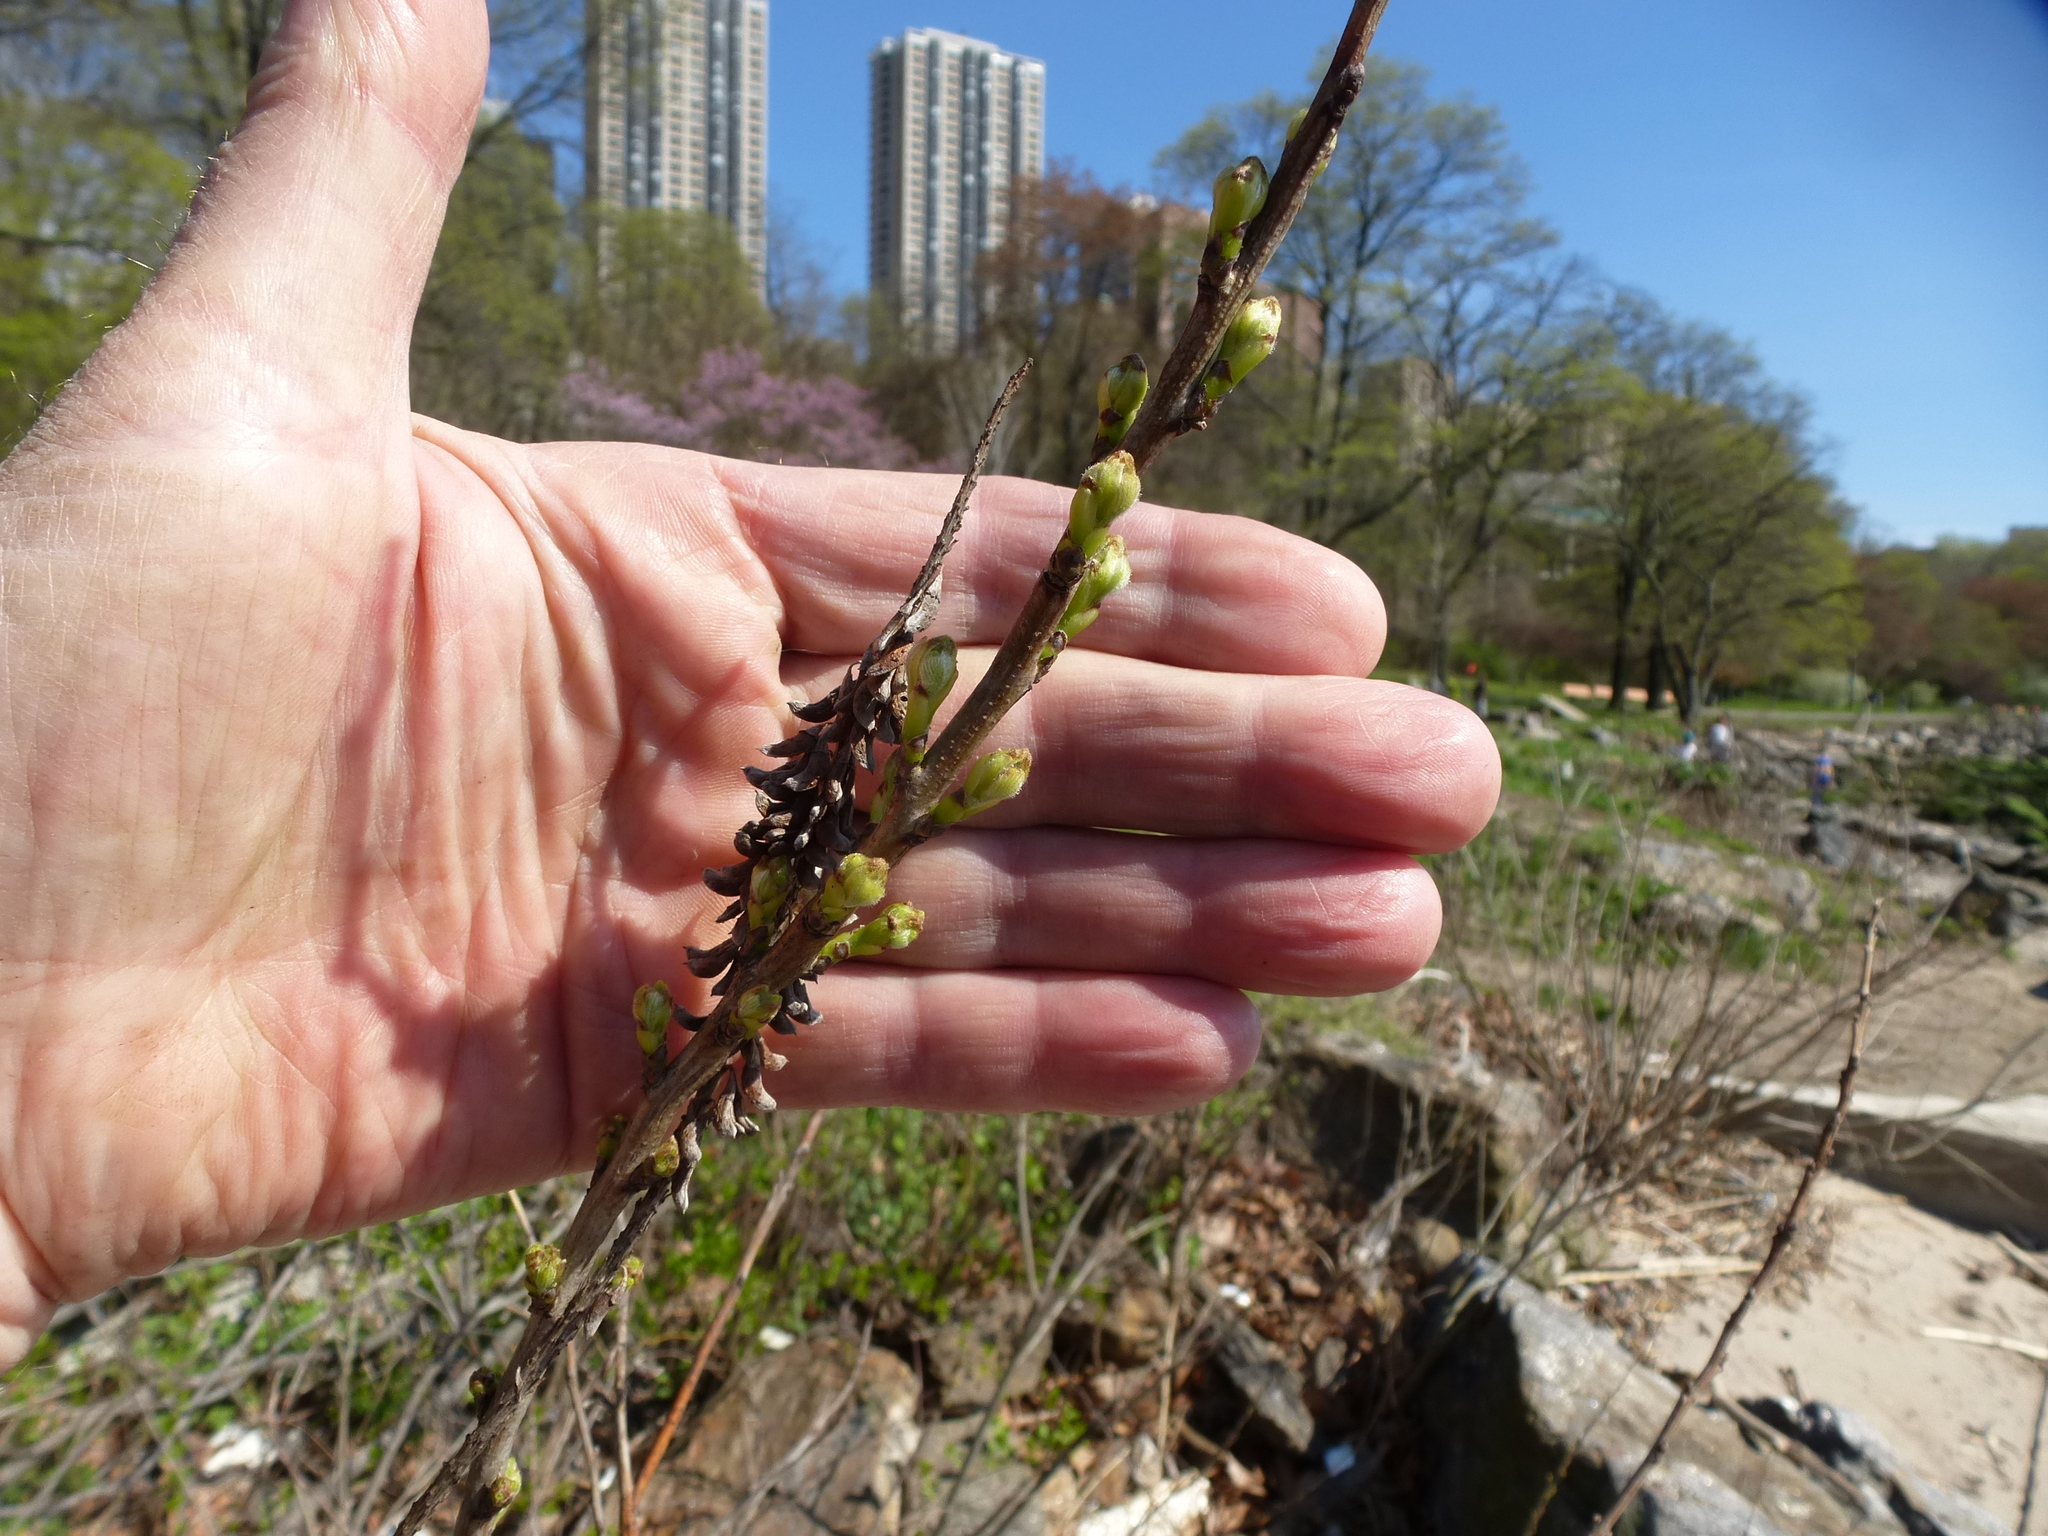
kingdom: Plantae
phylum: Tracheophyta
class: Magnoliopsida
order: Fabales
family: Fabaceae
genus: Amorpha
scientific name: Amorpha fruticosa
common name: False indigo
